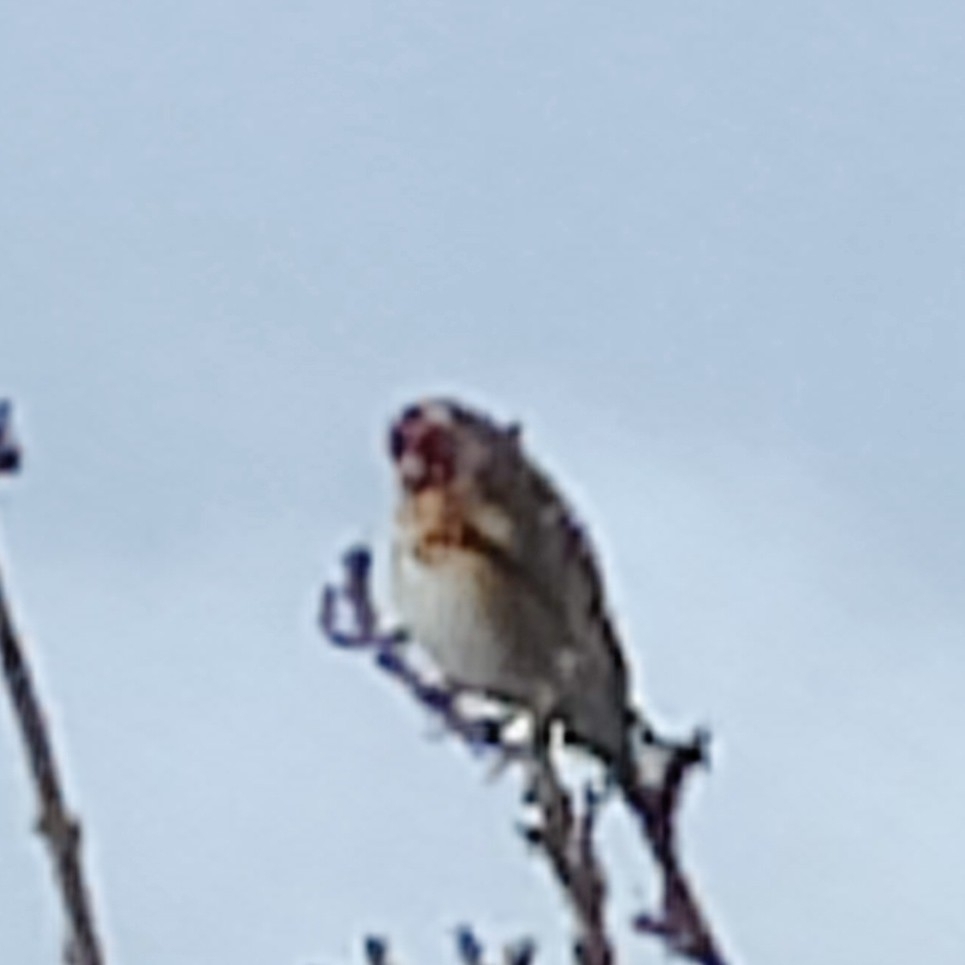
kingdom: Animalia
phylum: Chordata
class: Aves
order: Passeriformes
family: Fringillidae
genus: Carduelis
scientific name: Carduelis carduelis
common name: European goldfinch
